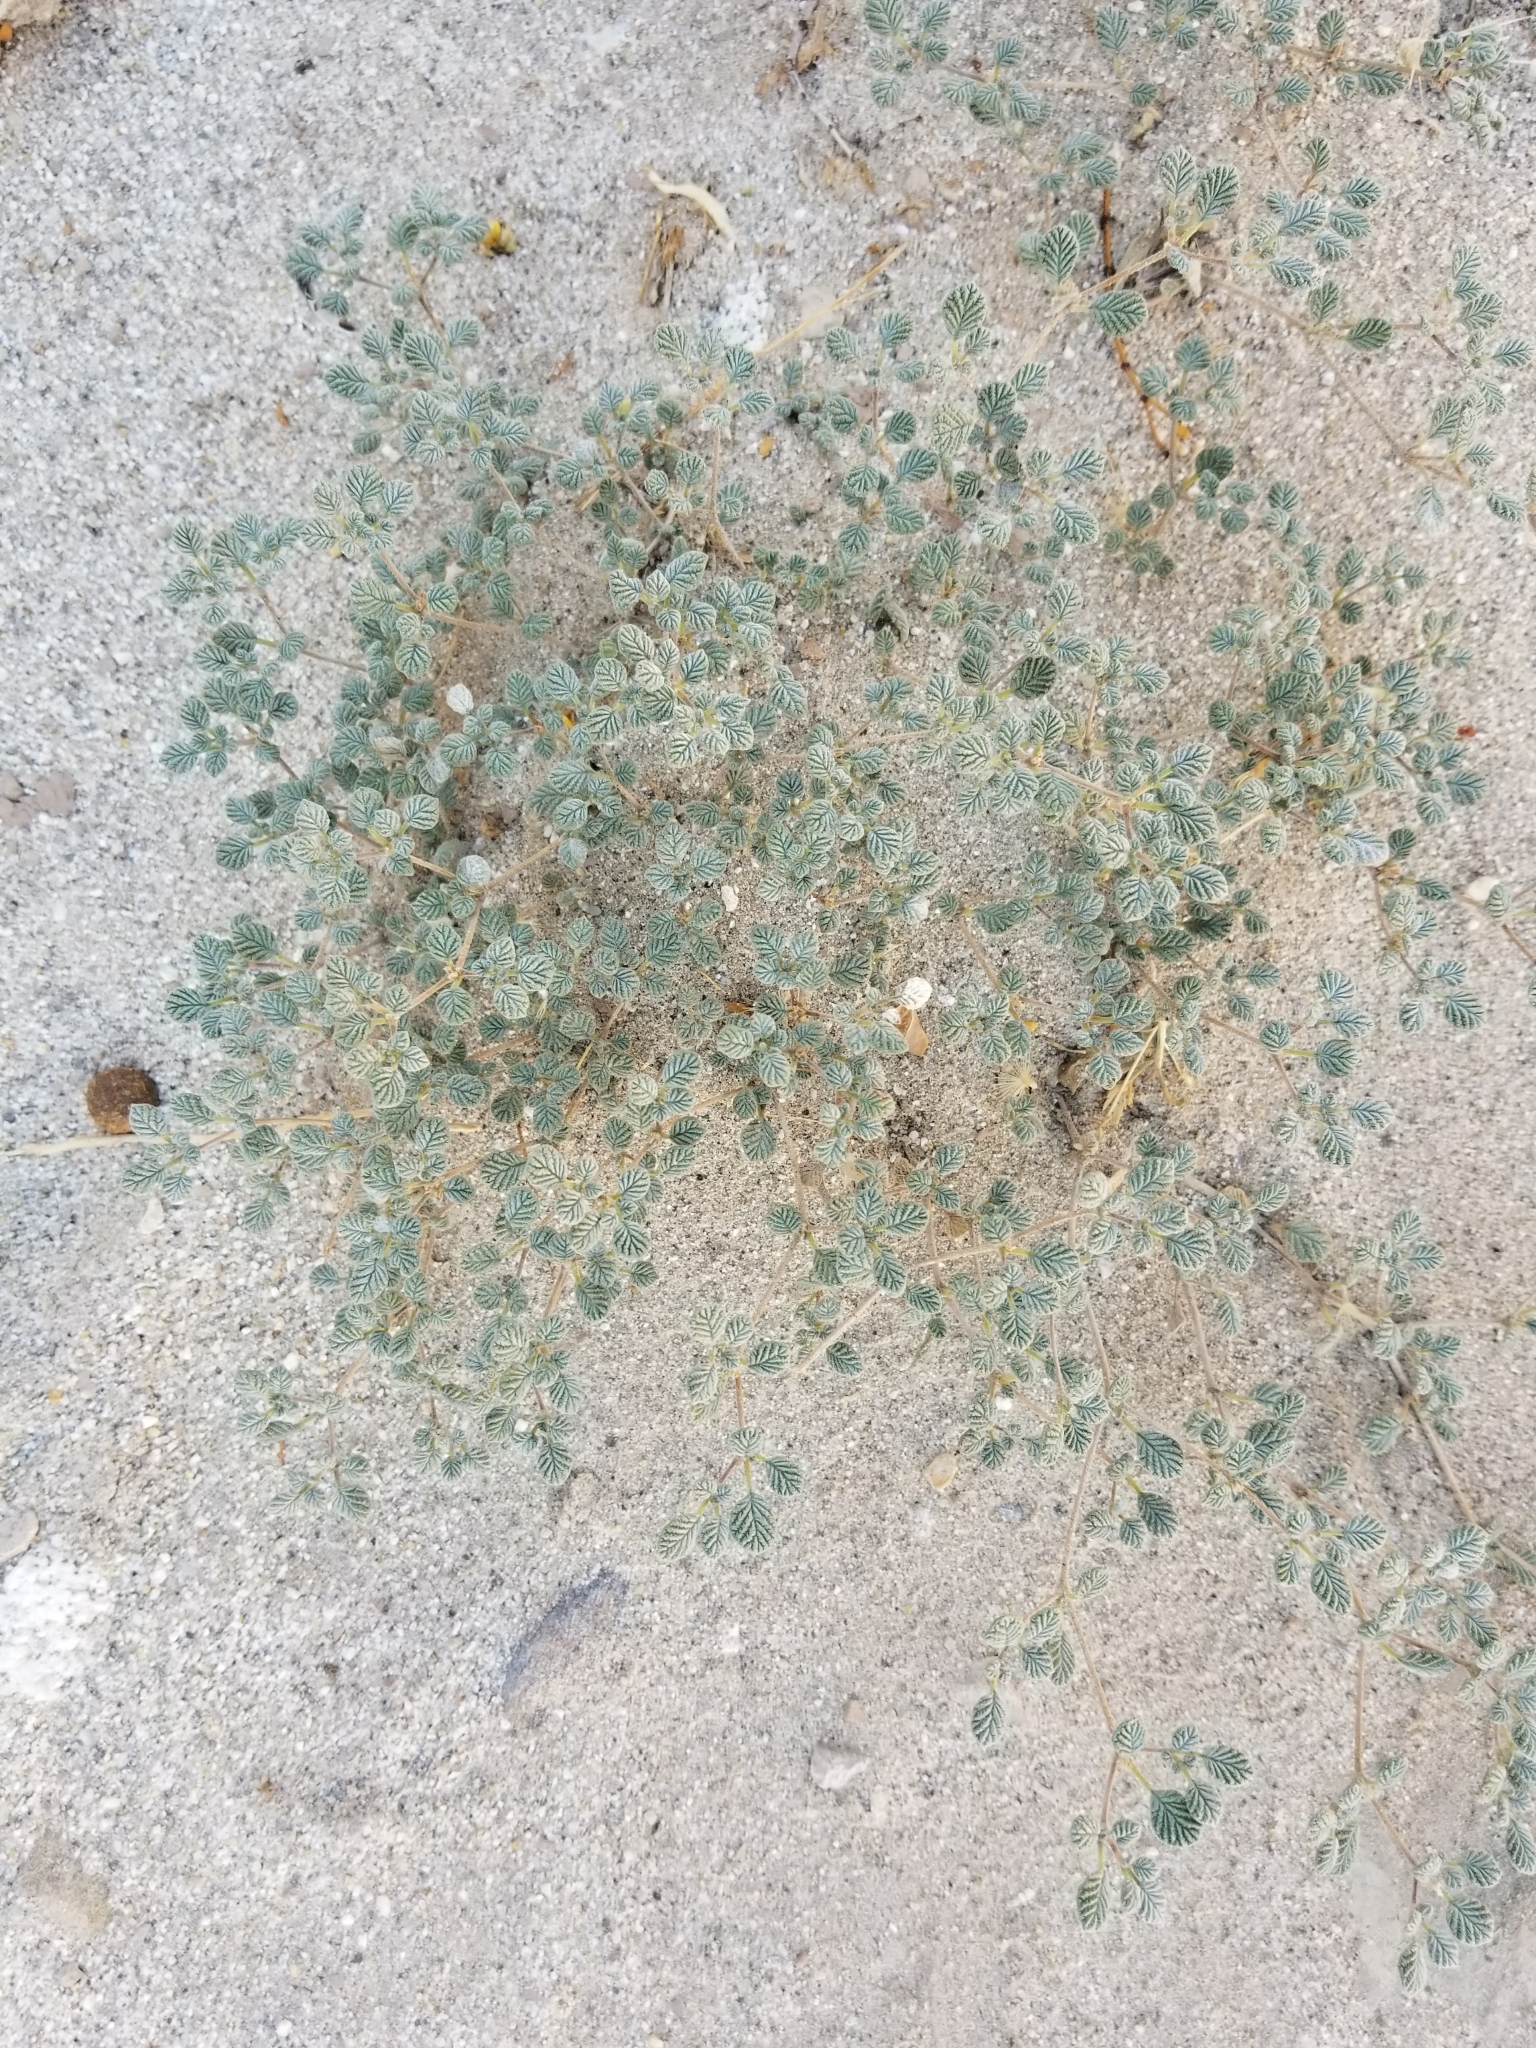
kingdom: Plantae
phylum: Tracheophyta
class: Magnoliopsida
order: Boraginales
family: Ehretiaceae
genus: Tiquilia
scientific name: Tiquilia plicata
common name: Fan-leaf tiquilia
